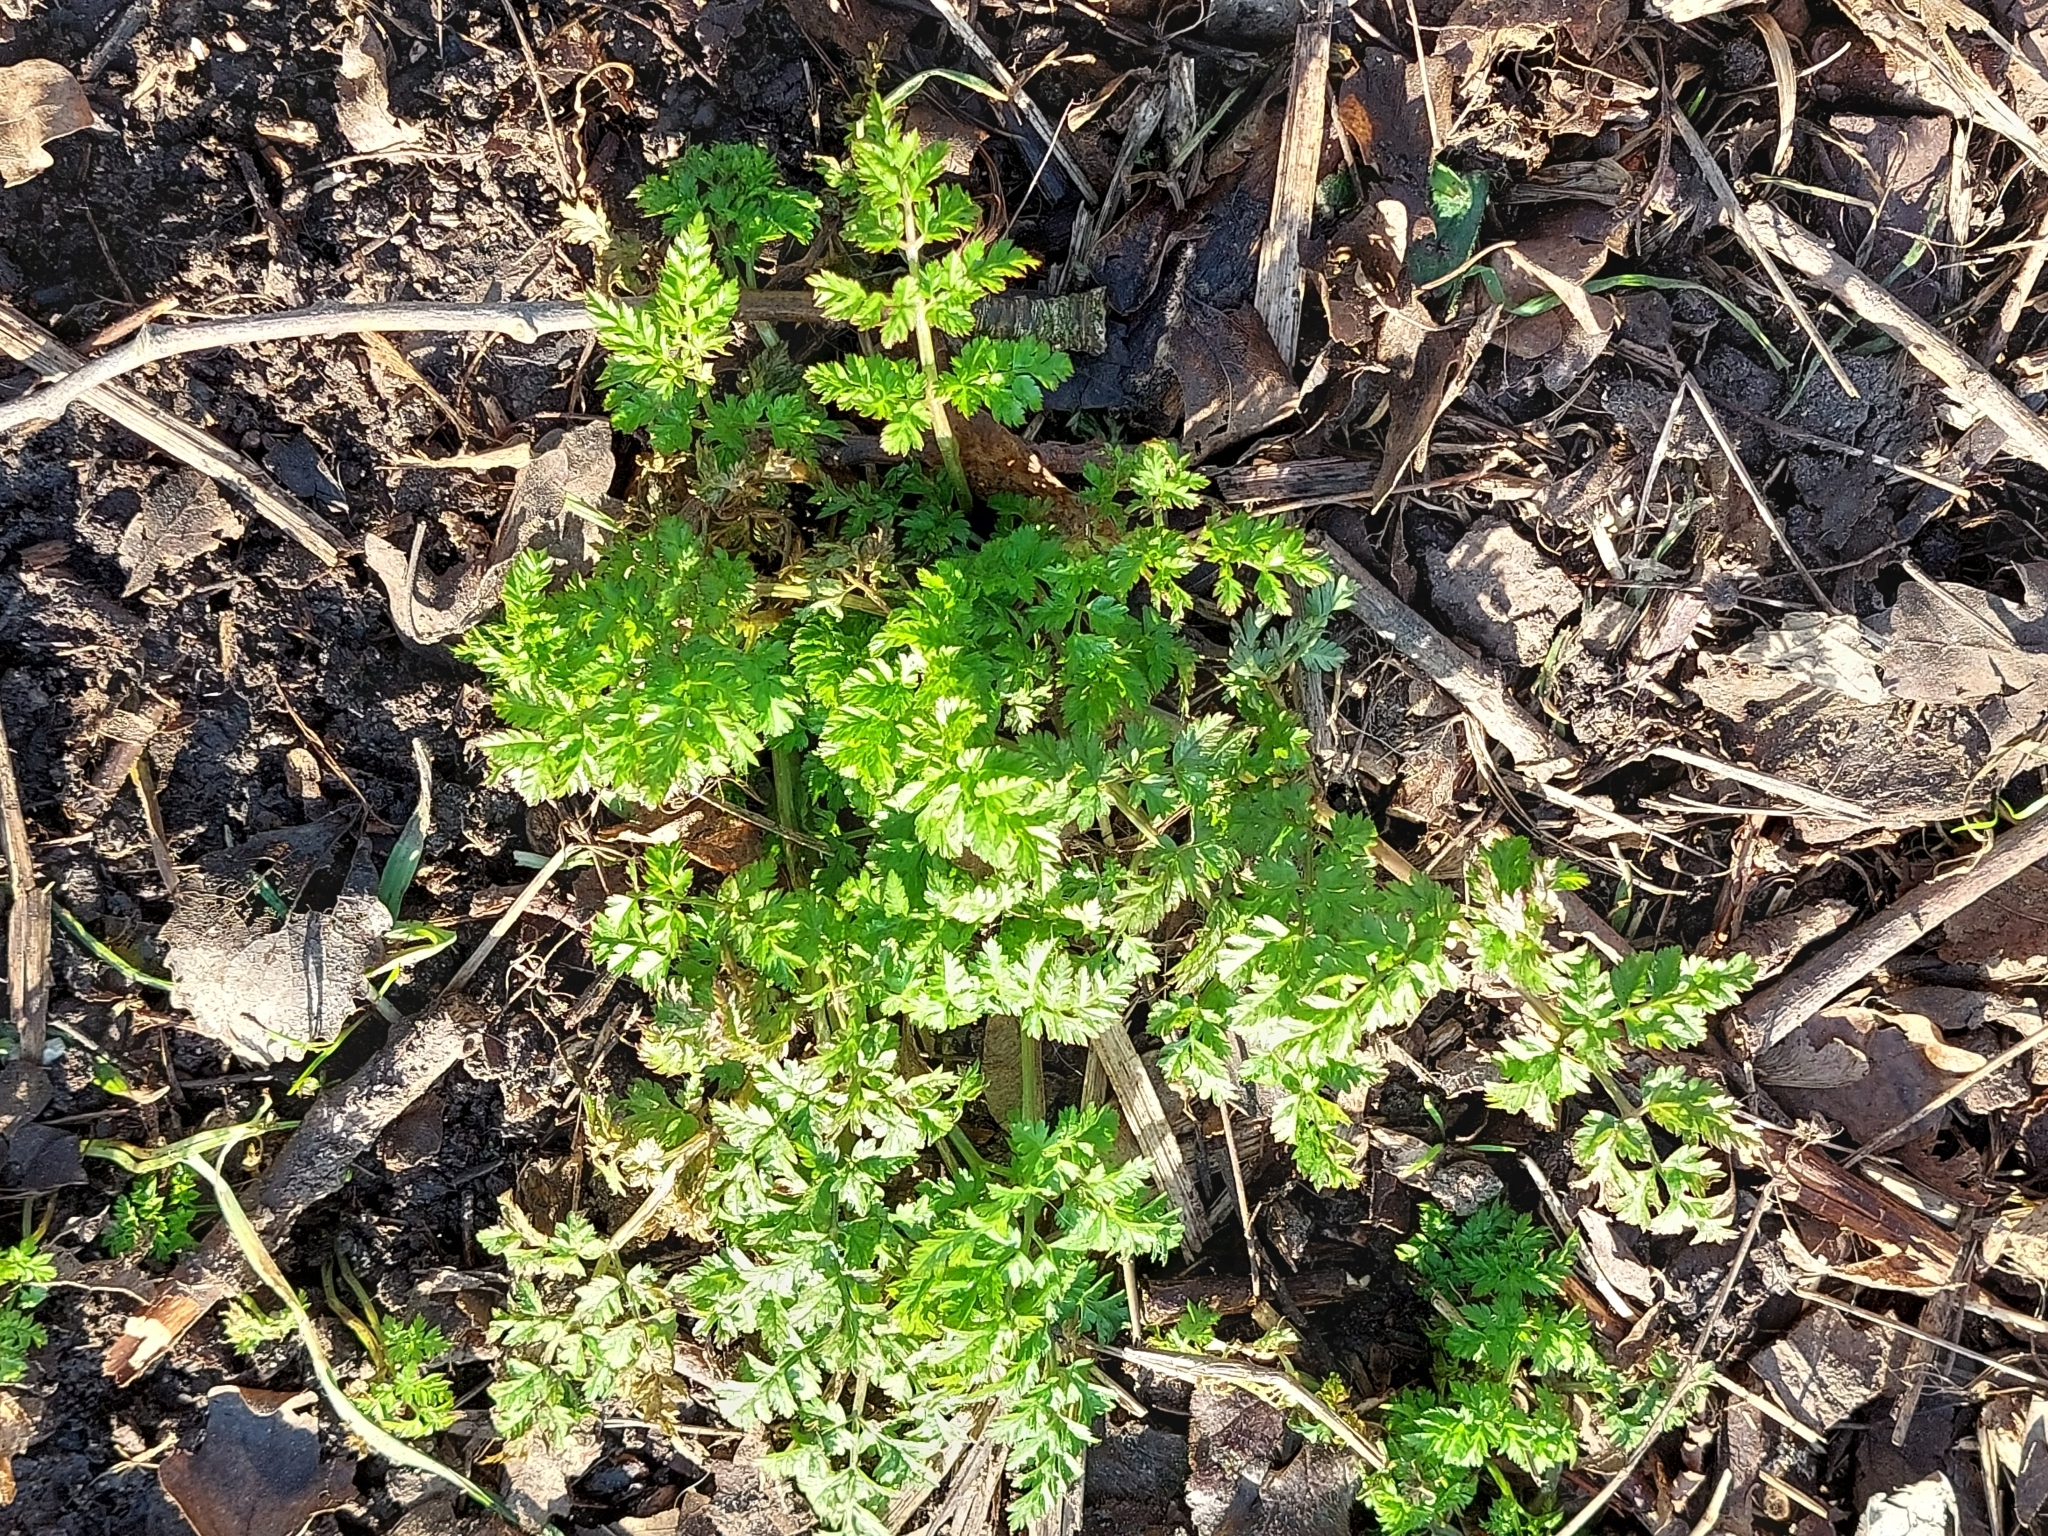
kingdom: Plantae
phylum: Tracheophyta
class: Magnoliopsida
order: Apiales
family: Apiaceae
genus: Anthriscus
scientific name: Anthriscus sylvestris
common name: Cow parsley
